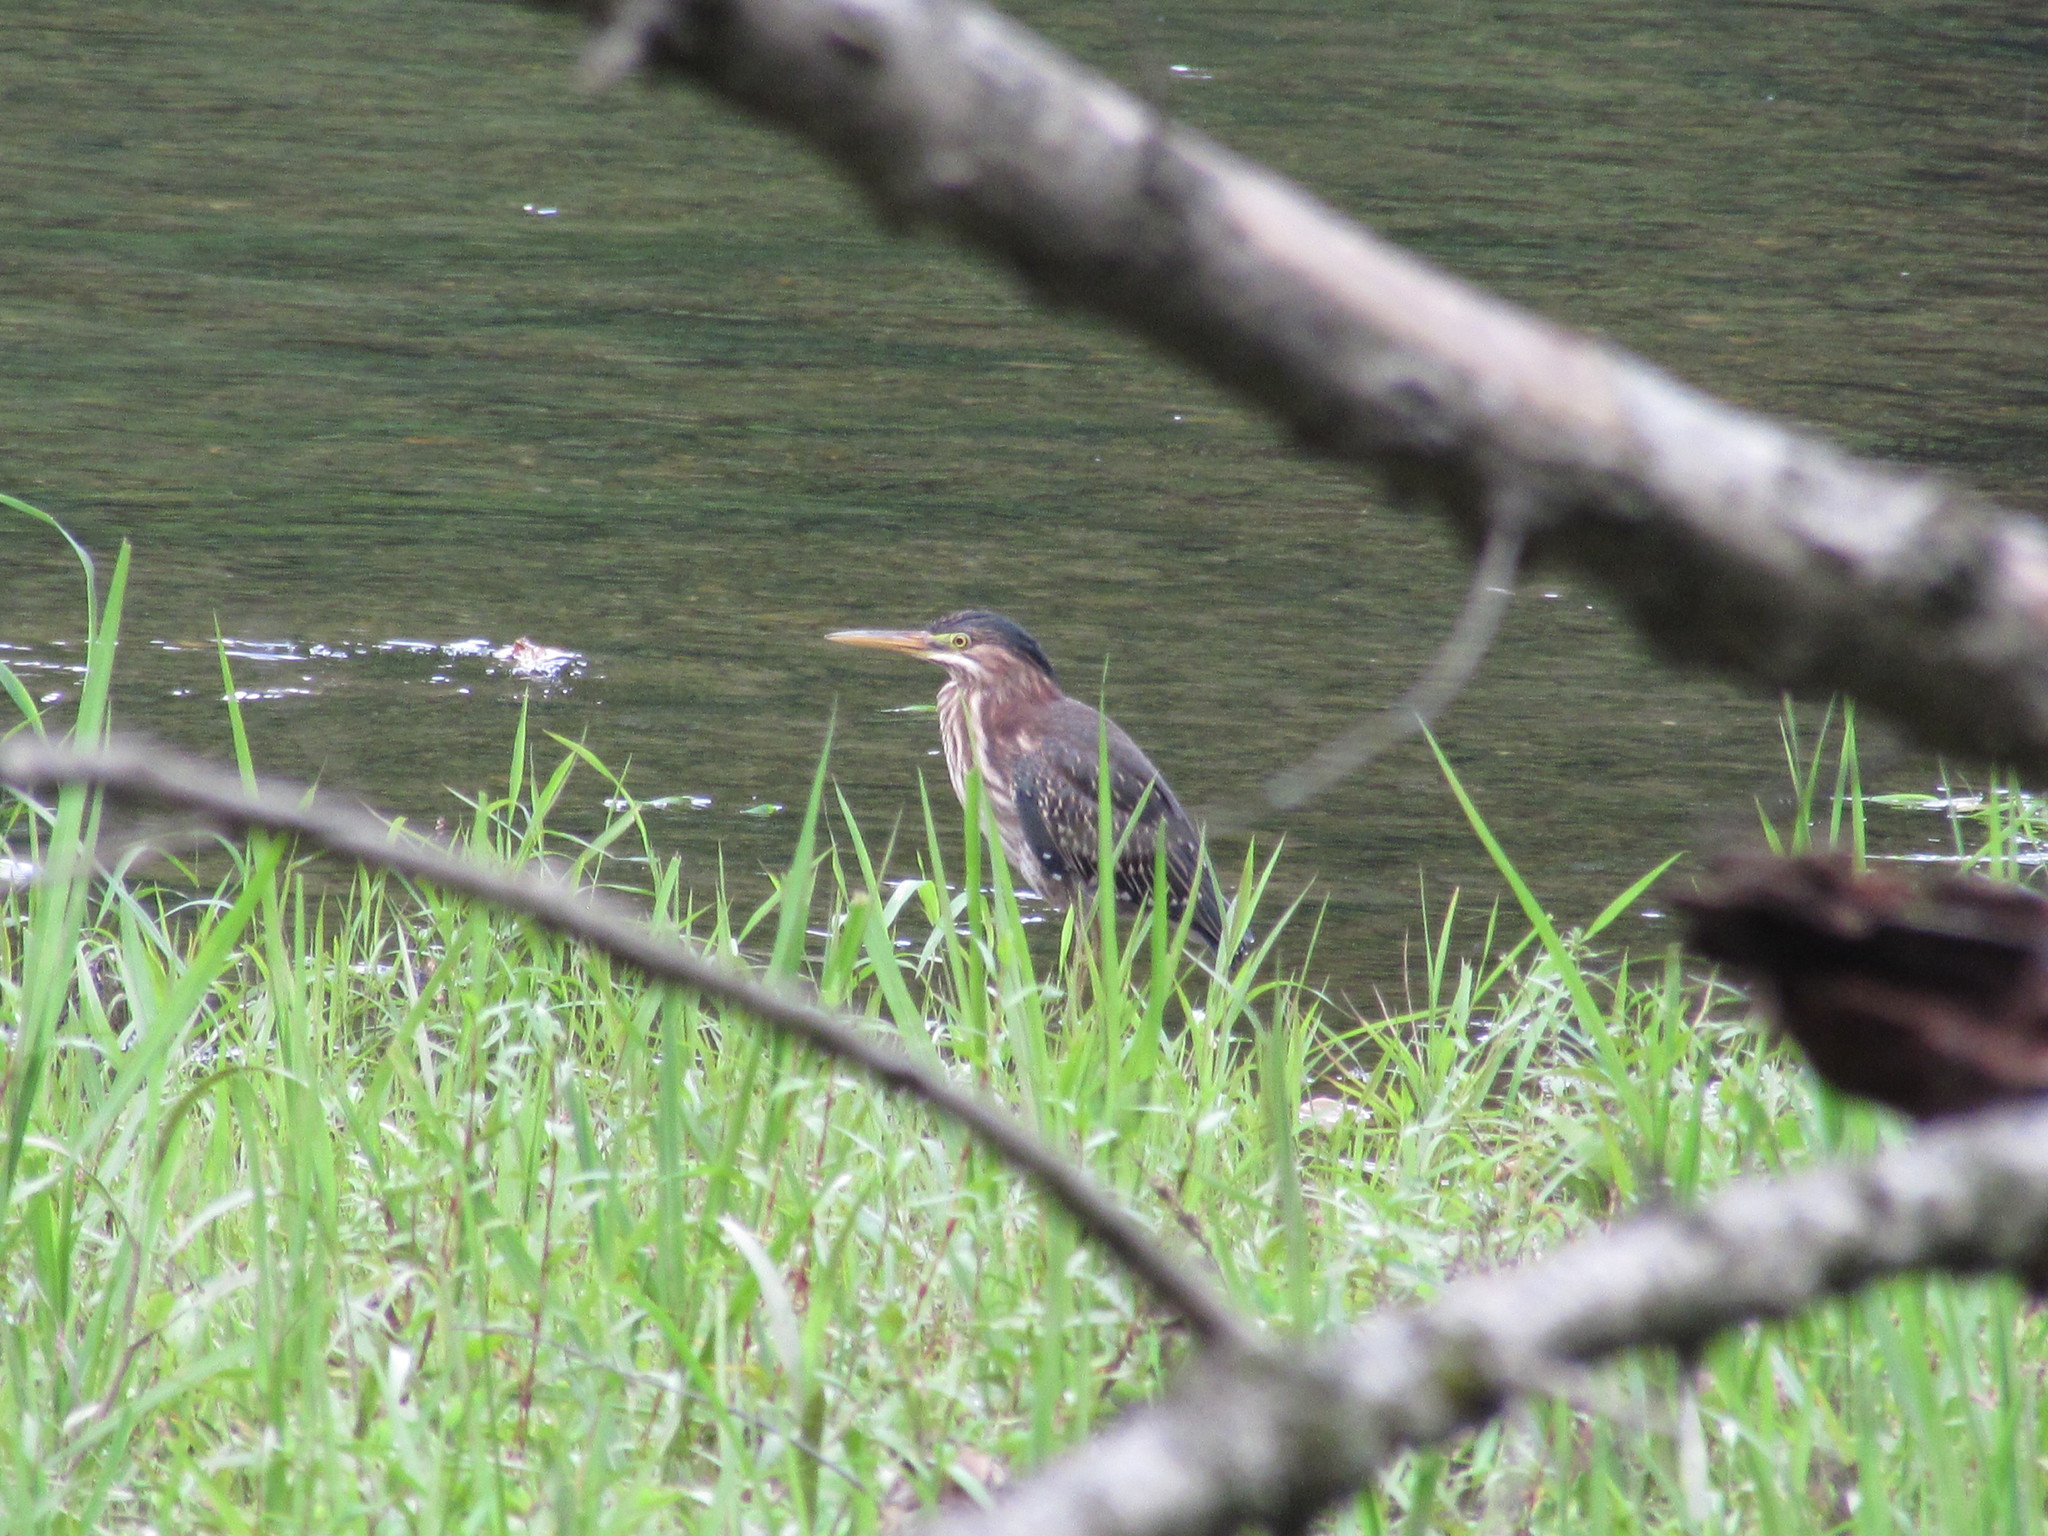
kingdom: Animalia
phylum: Chordata
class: Aves
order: Pelecaniformes
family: Ardeidae
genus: Butorides
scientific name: Butorides virescens
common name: Green heron
